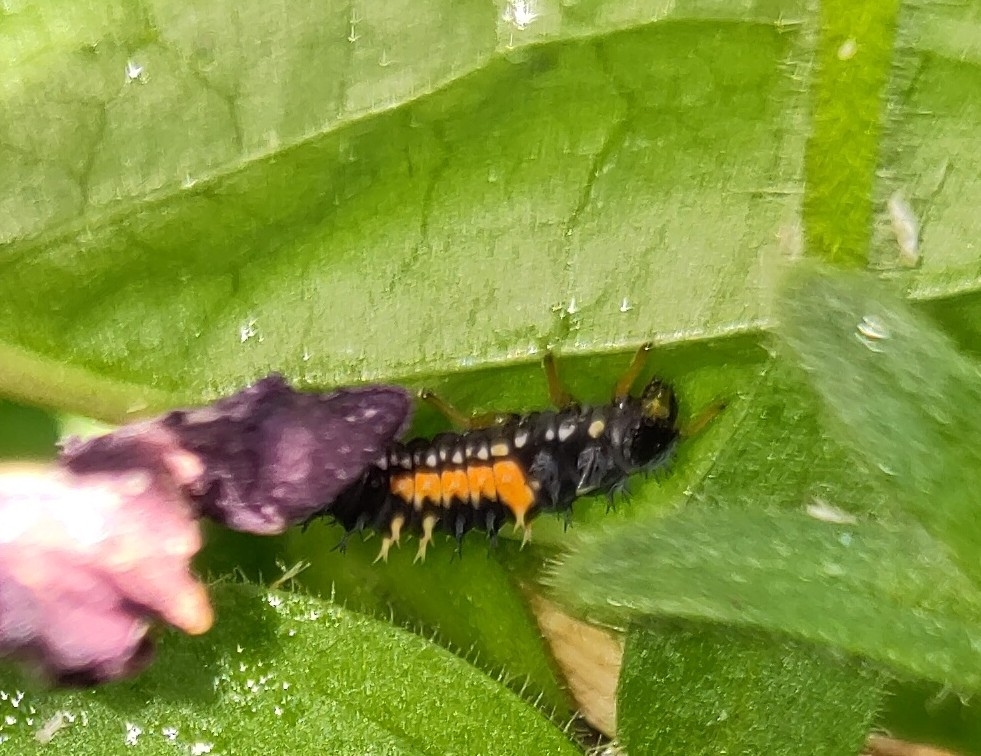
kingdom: Animalia
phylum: Arthropoda
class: Insecta
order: Coleoptera
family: Coccinellidae
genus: Harmonia
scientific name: Harmonia axyridis
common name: Harlequin ladybird
